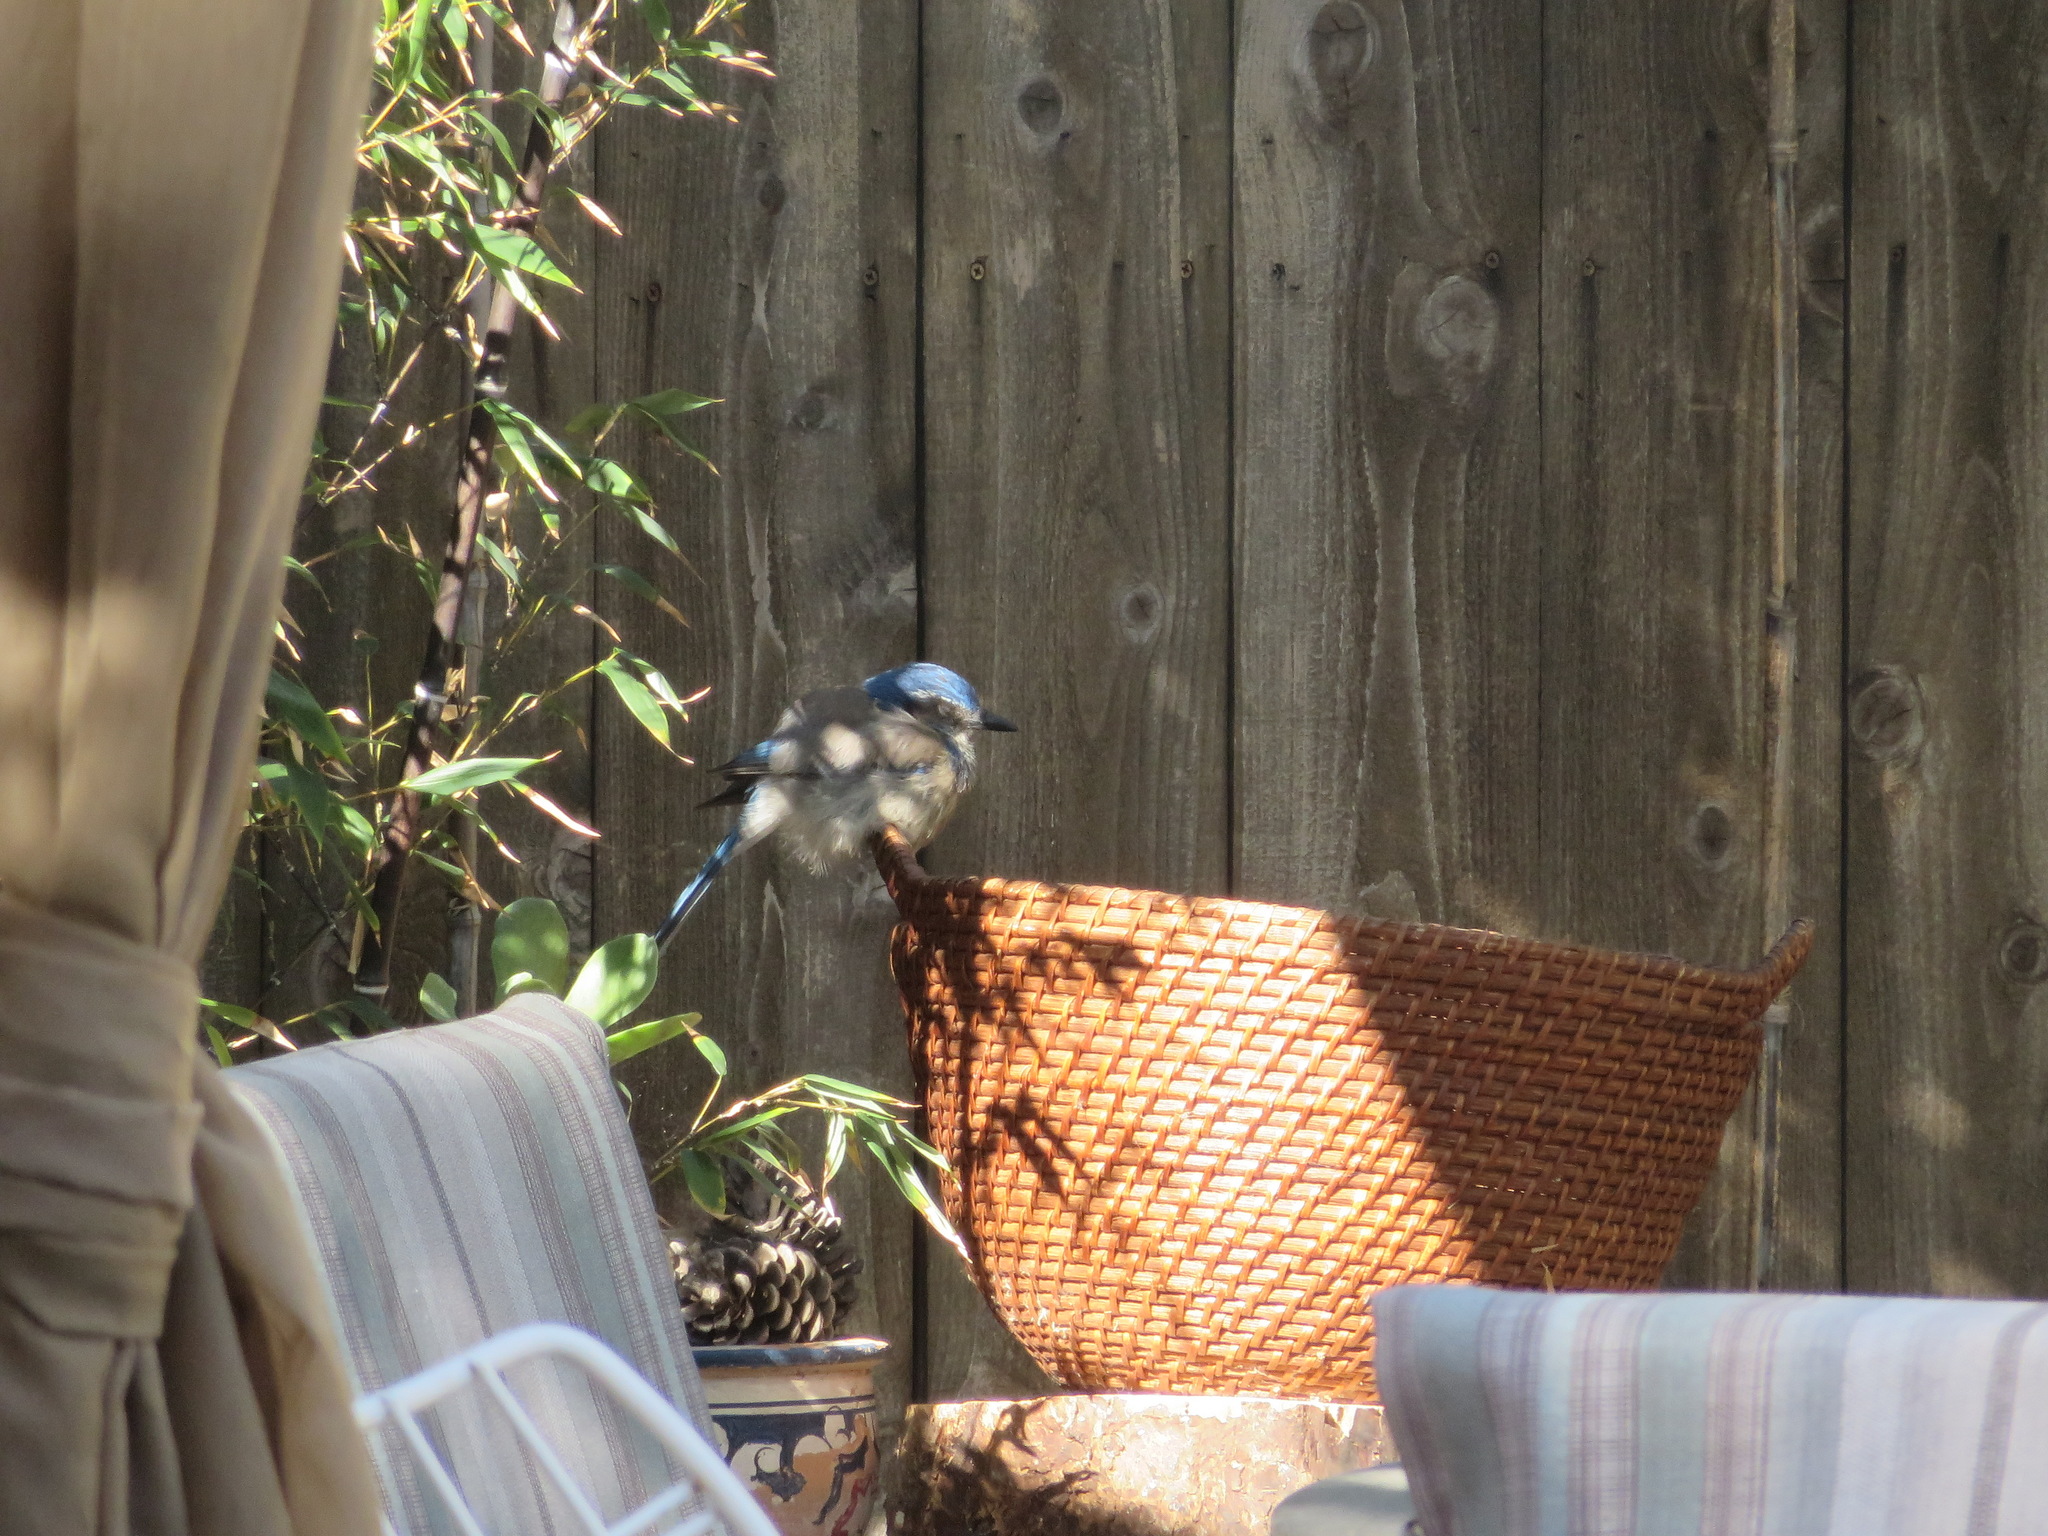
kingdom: Animalia
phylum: Chordata
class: Aves
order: Passeriformes
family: Corvidae
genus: Aphelocoma
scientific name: Aphelocoma californica
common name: California scrub-jay
